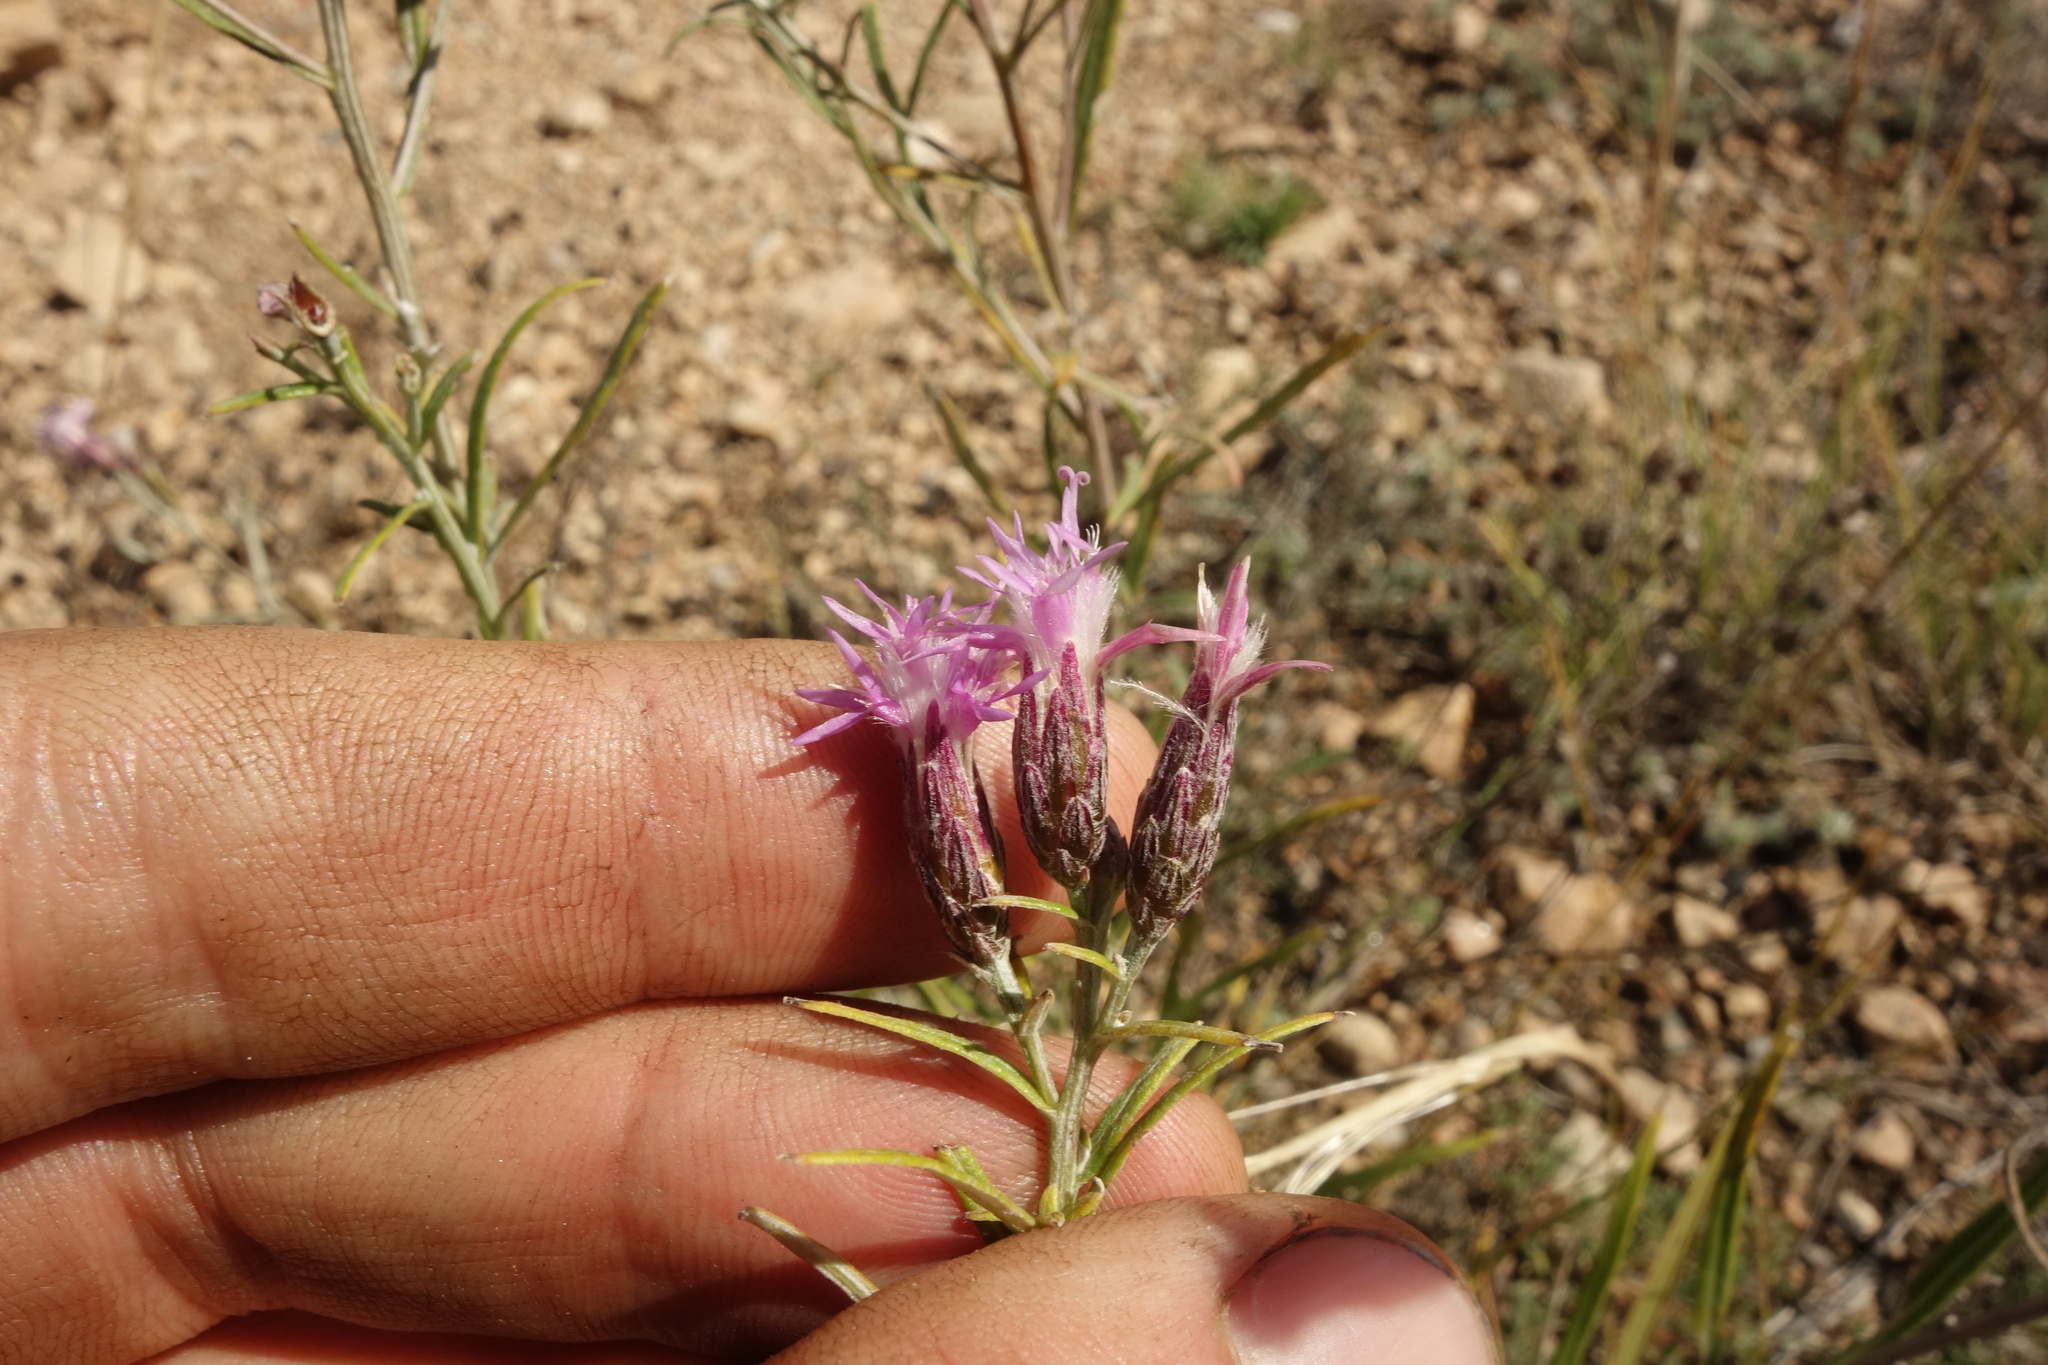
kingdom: Plantae
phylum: Tracheophyta
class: Magnoliopsida
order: Asterales
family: Asteraceae
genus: Saussurea
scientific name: Saussurea salicifolia
